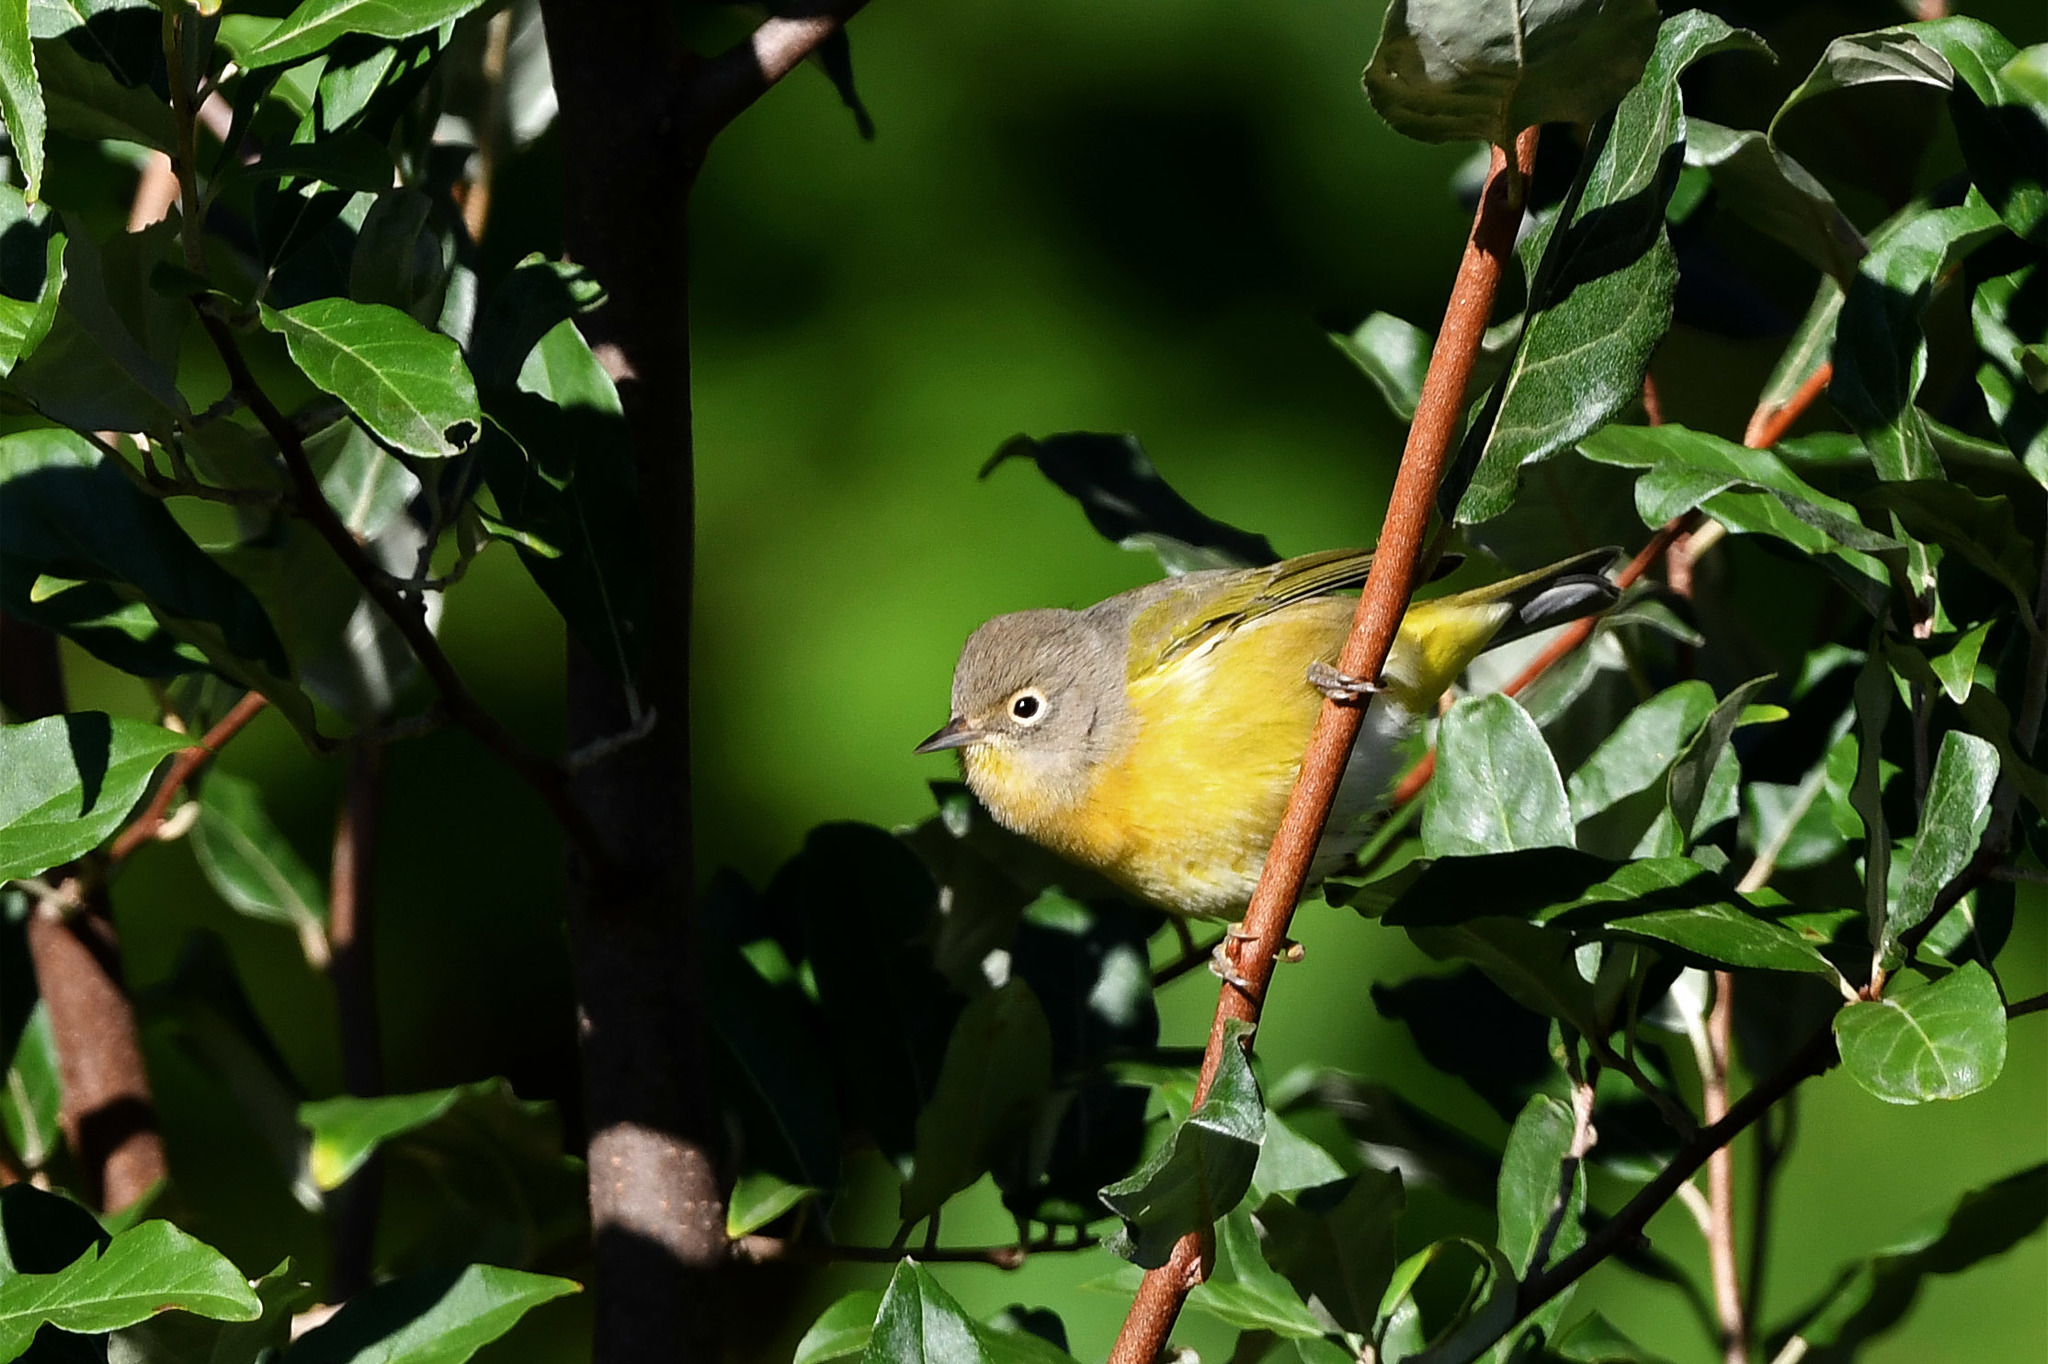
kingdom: Animalia
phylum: Chordata
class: Aves
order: Passeriformes
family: Parulidae
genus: Leiothlypis
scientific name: Leiothlypis ruficapilla
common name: Nashville warbler
